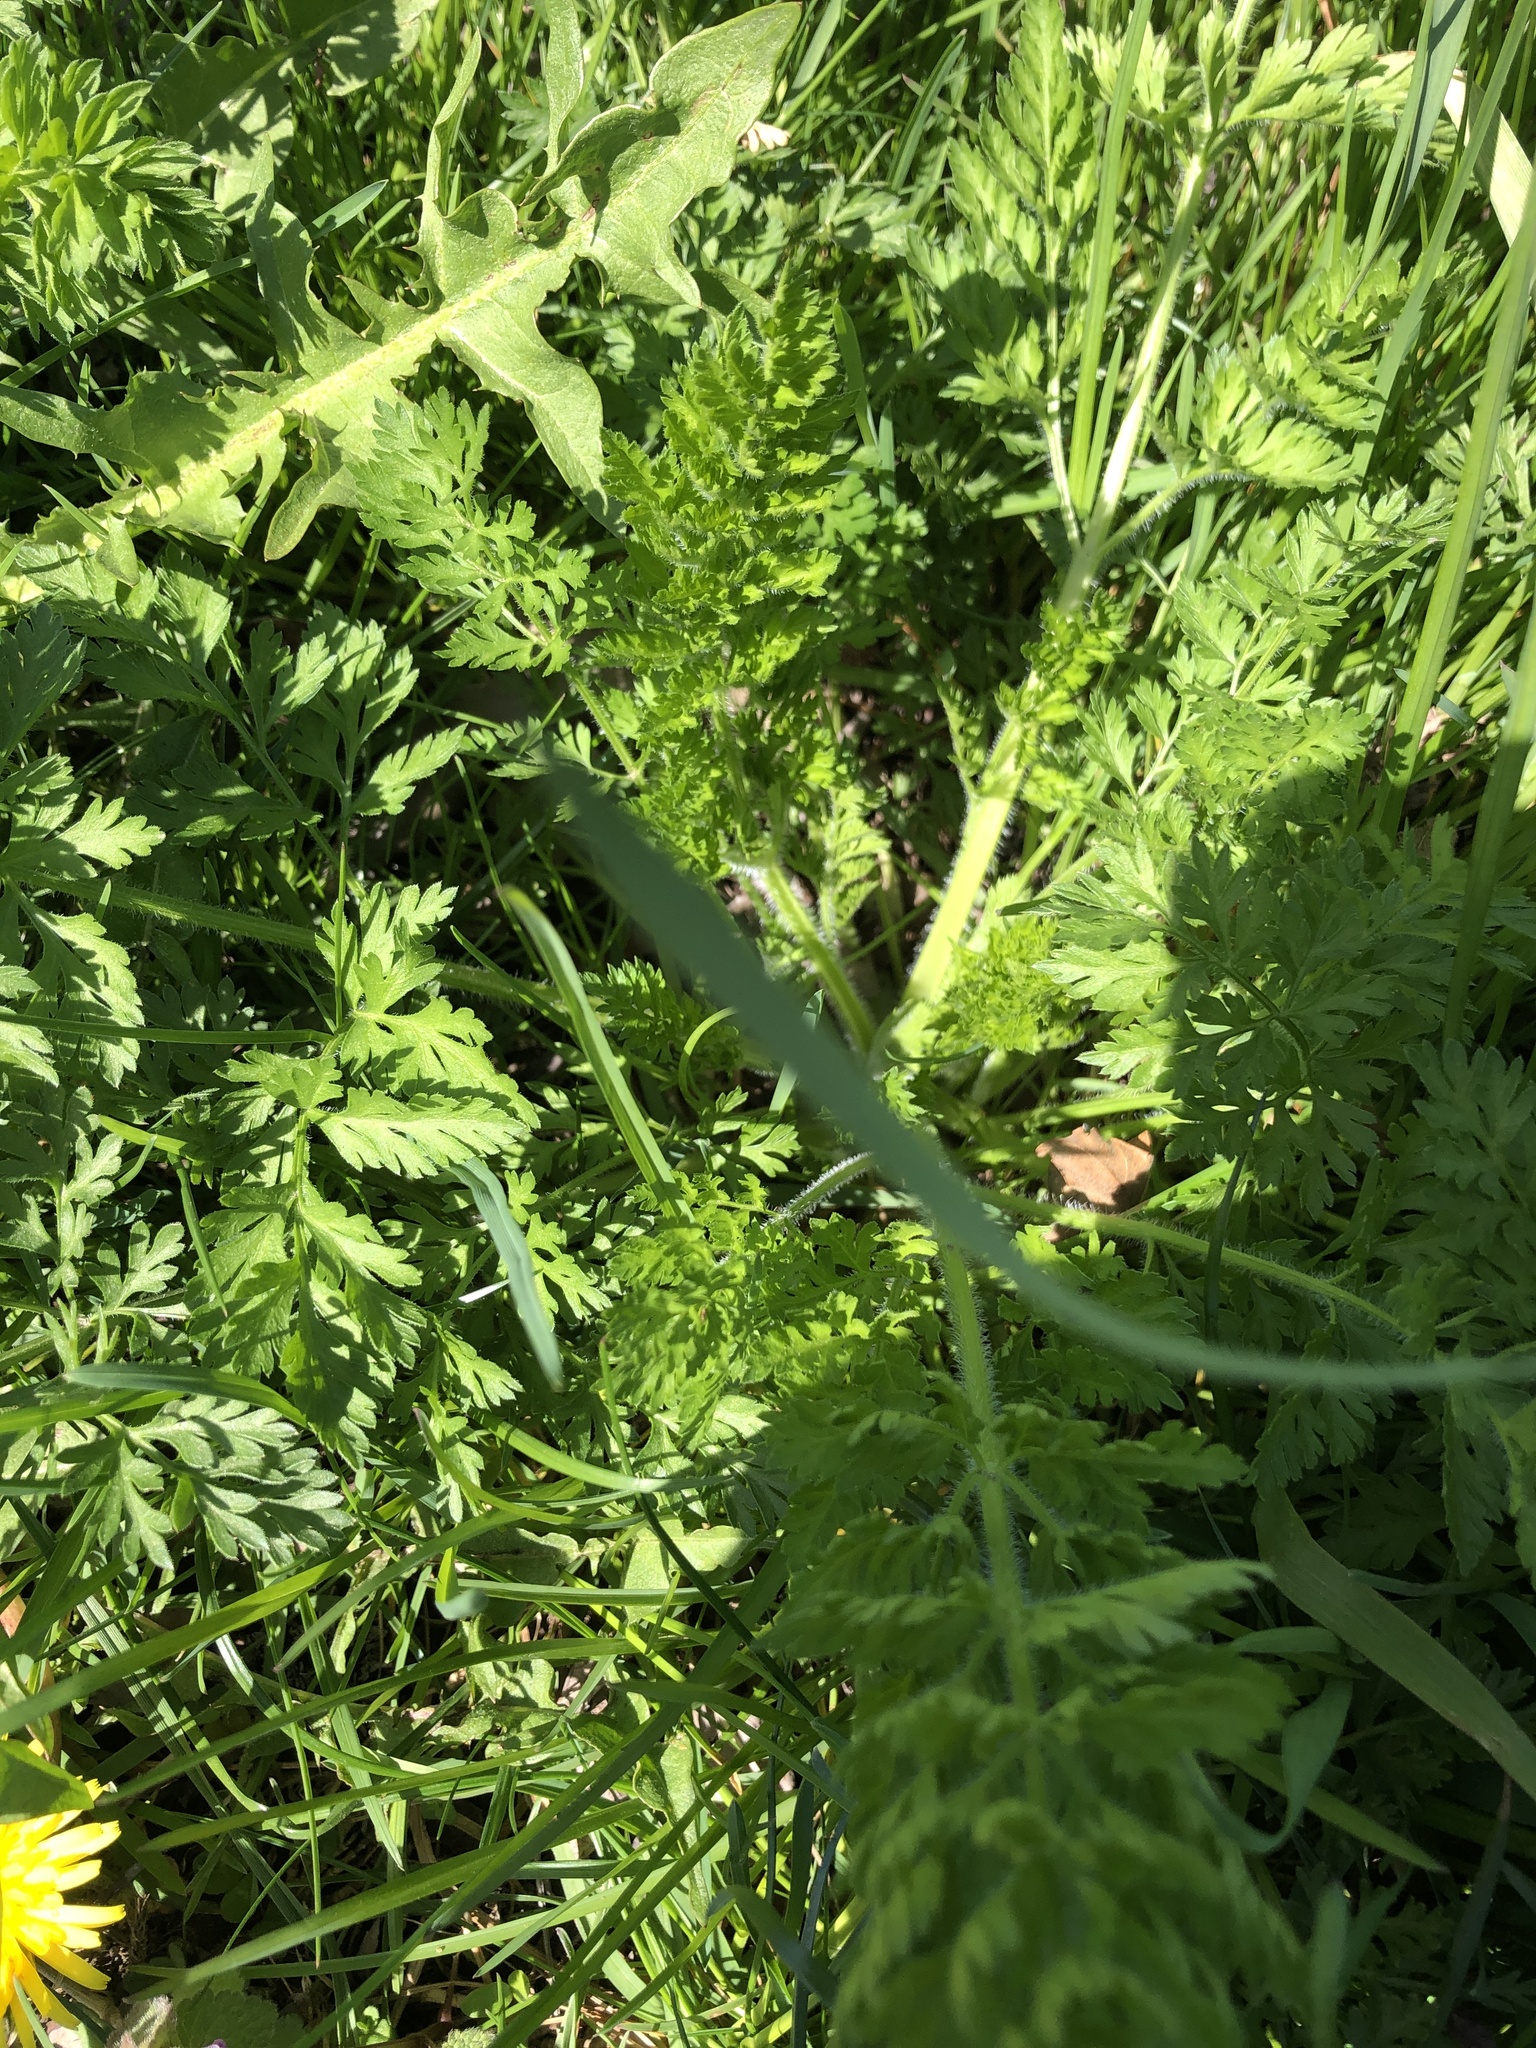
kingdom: Plantae
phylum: Tracheophyta
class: Magnoliopsida
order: Apiales
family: Apiaceae
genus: Daucus
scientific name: Daucus carota
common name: Wild carrot
